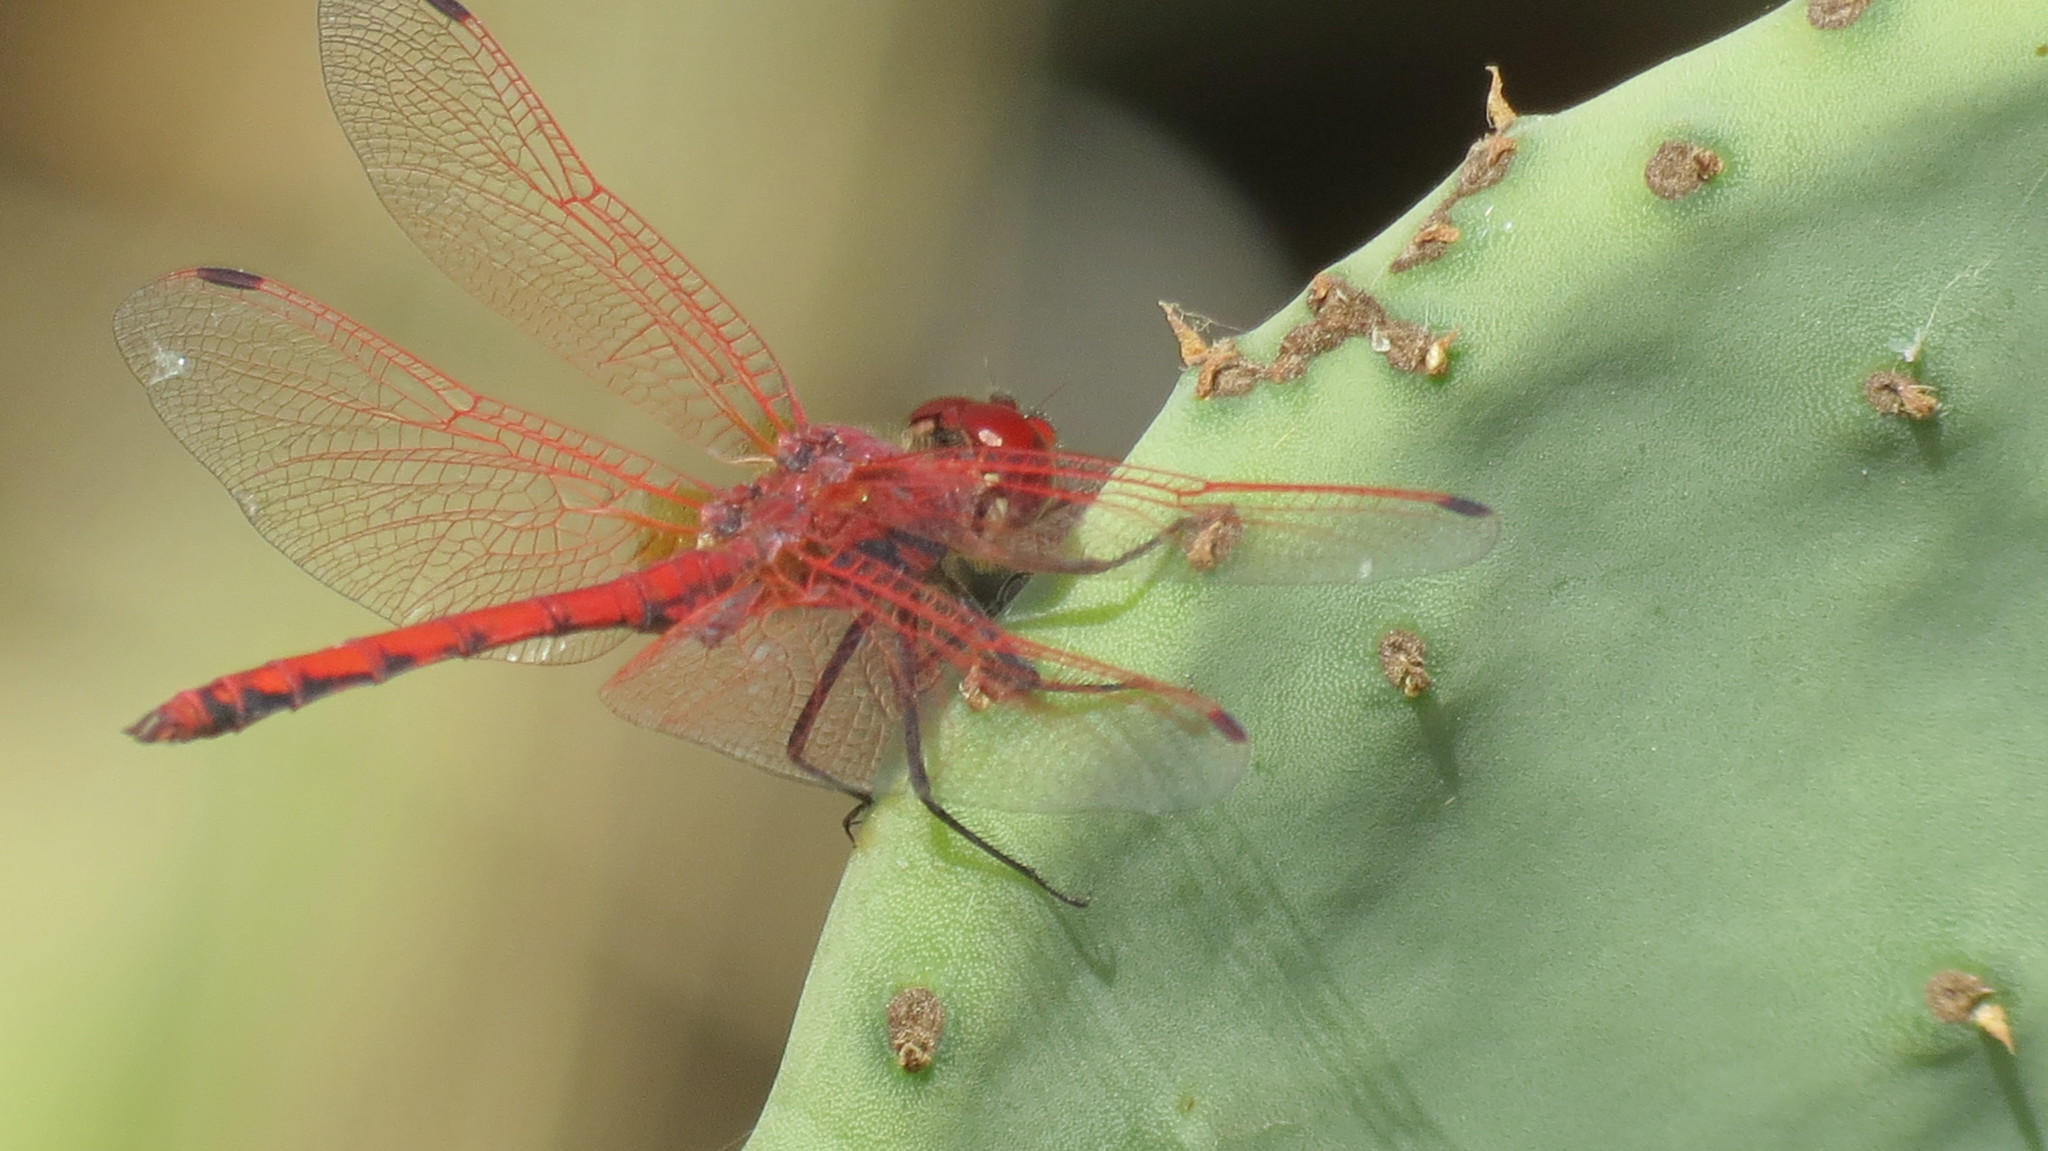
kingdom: Animalia
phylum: Arthropoda
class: Insecta
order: Odonata
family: Libellulidae
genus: Trithemis
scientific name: Trithemis arteriosa
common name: Red-veined dropwing
